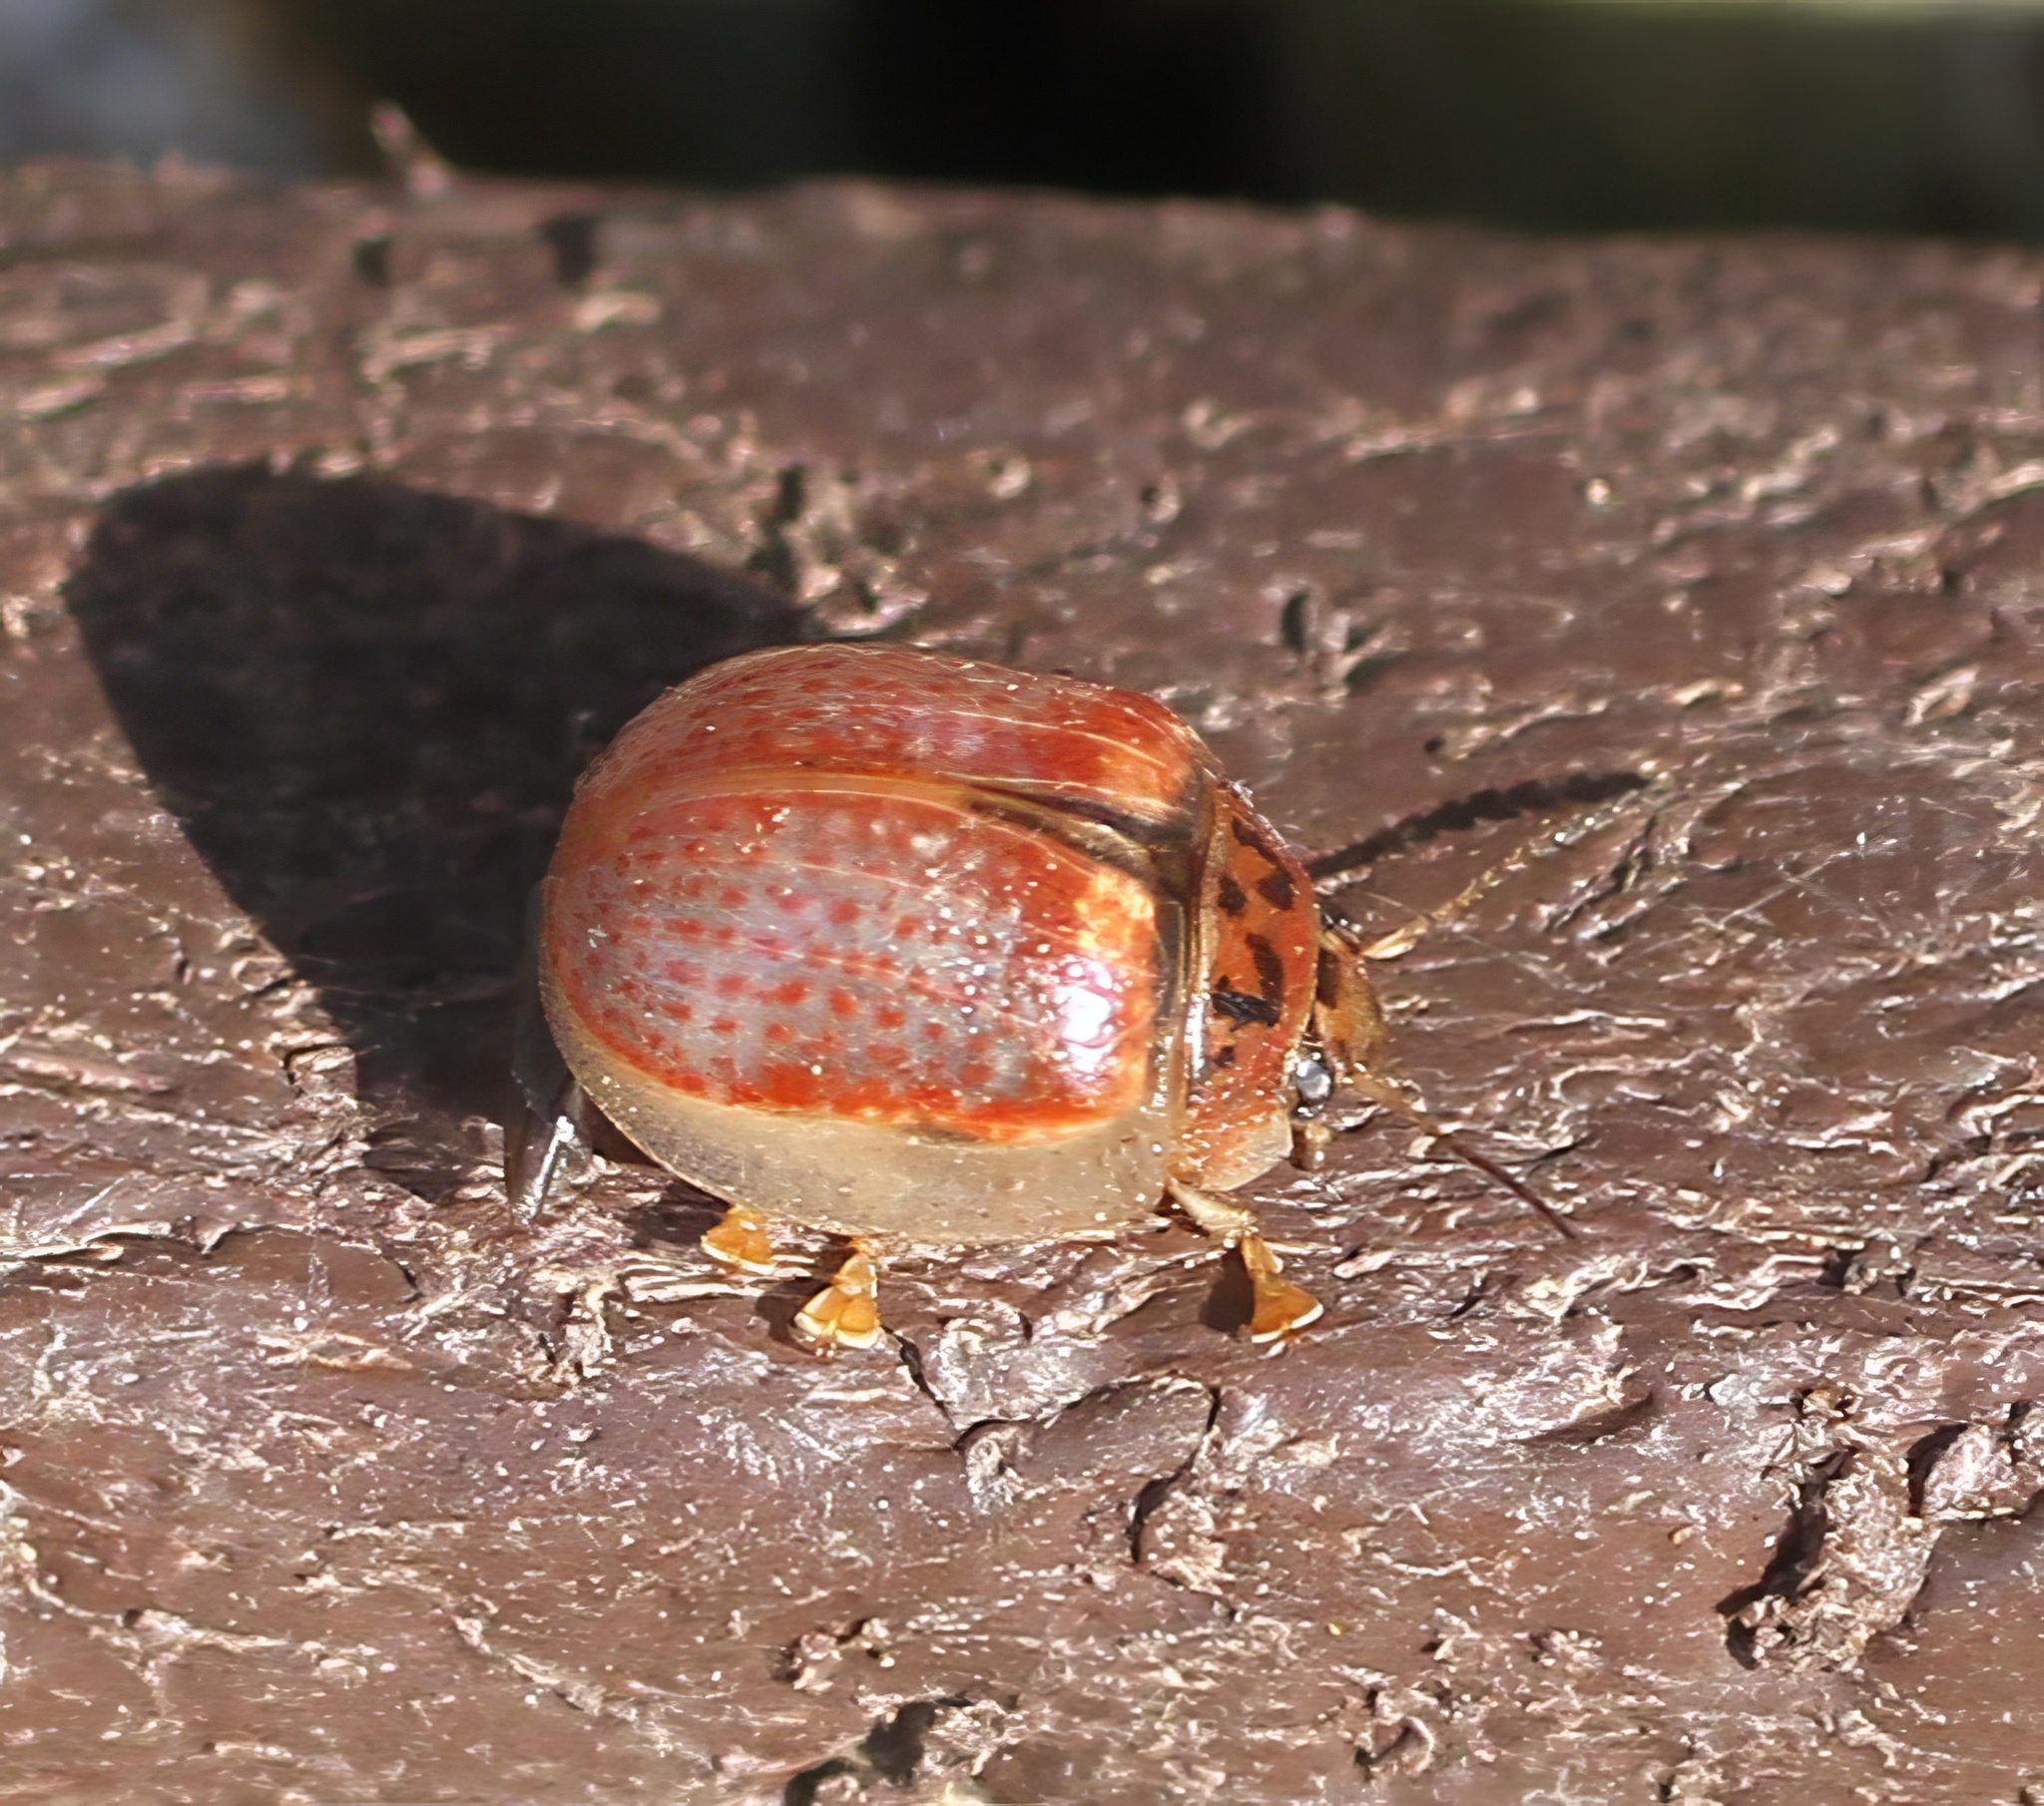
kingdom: Animalia
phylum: Arthropoda
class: Insecta
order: Coleoptera
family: Chrysomelidae
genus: Paropsisterna
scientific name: Paropsisterna m-fuscum
